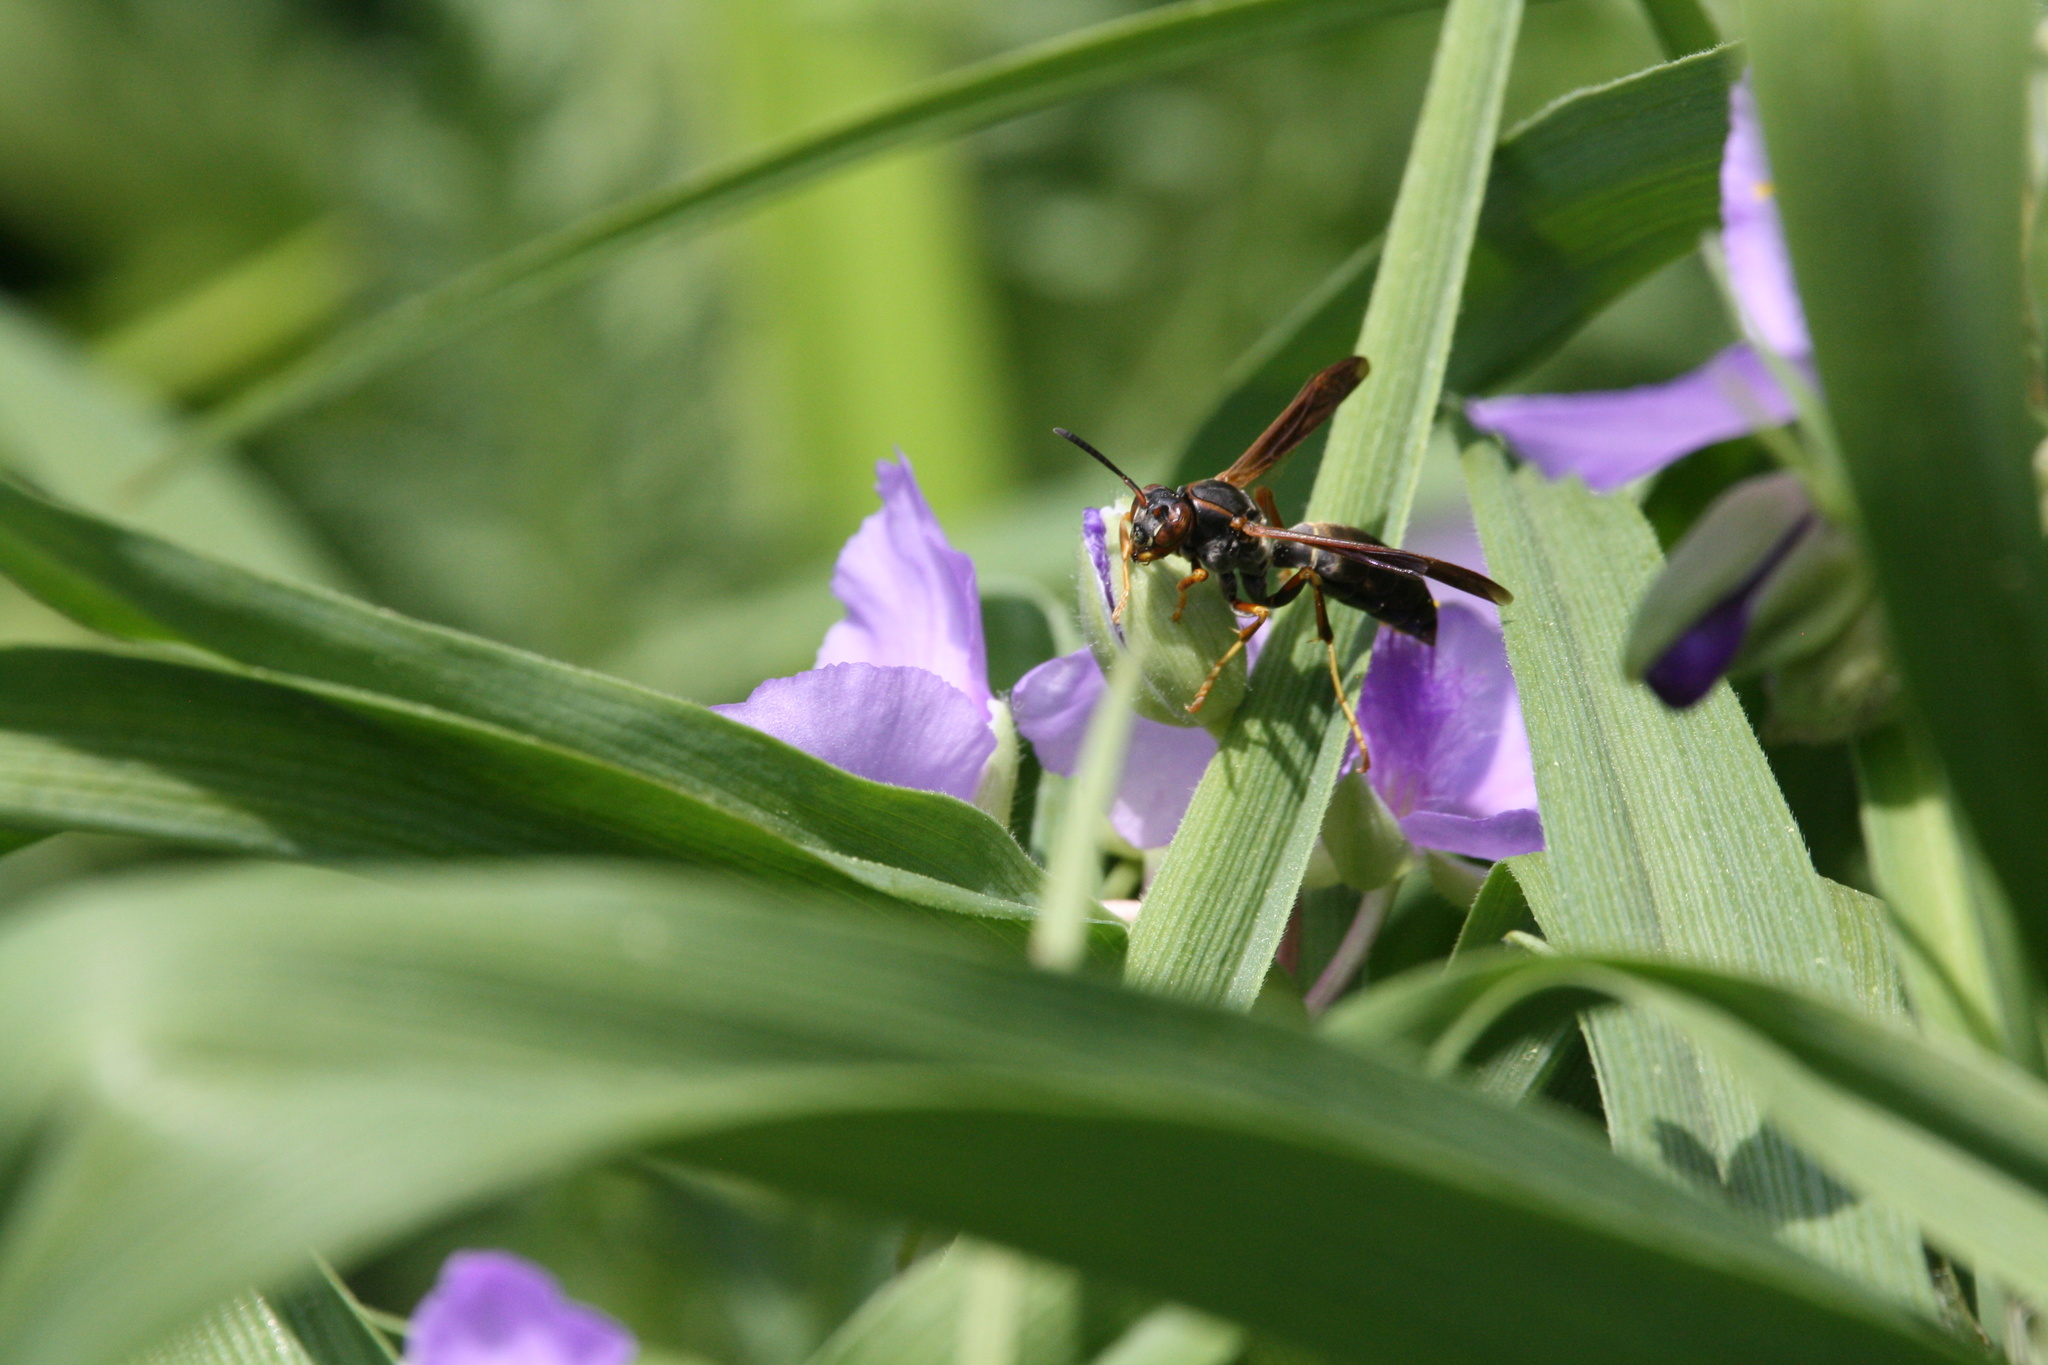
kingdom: Animalia
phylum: Arthropoda
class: Insecta
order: Hymenoptera
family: Eumenidae
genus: Polistes
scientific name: Polistes fuscatus
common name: Dark paper wasp
